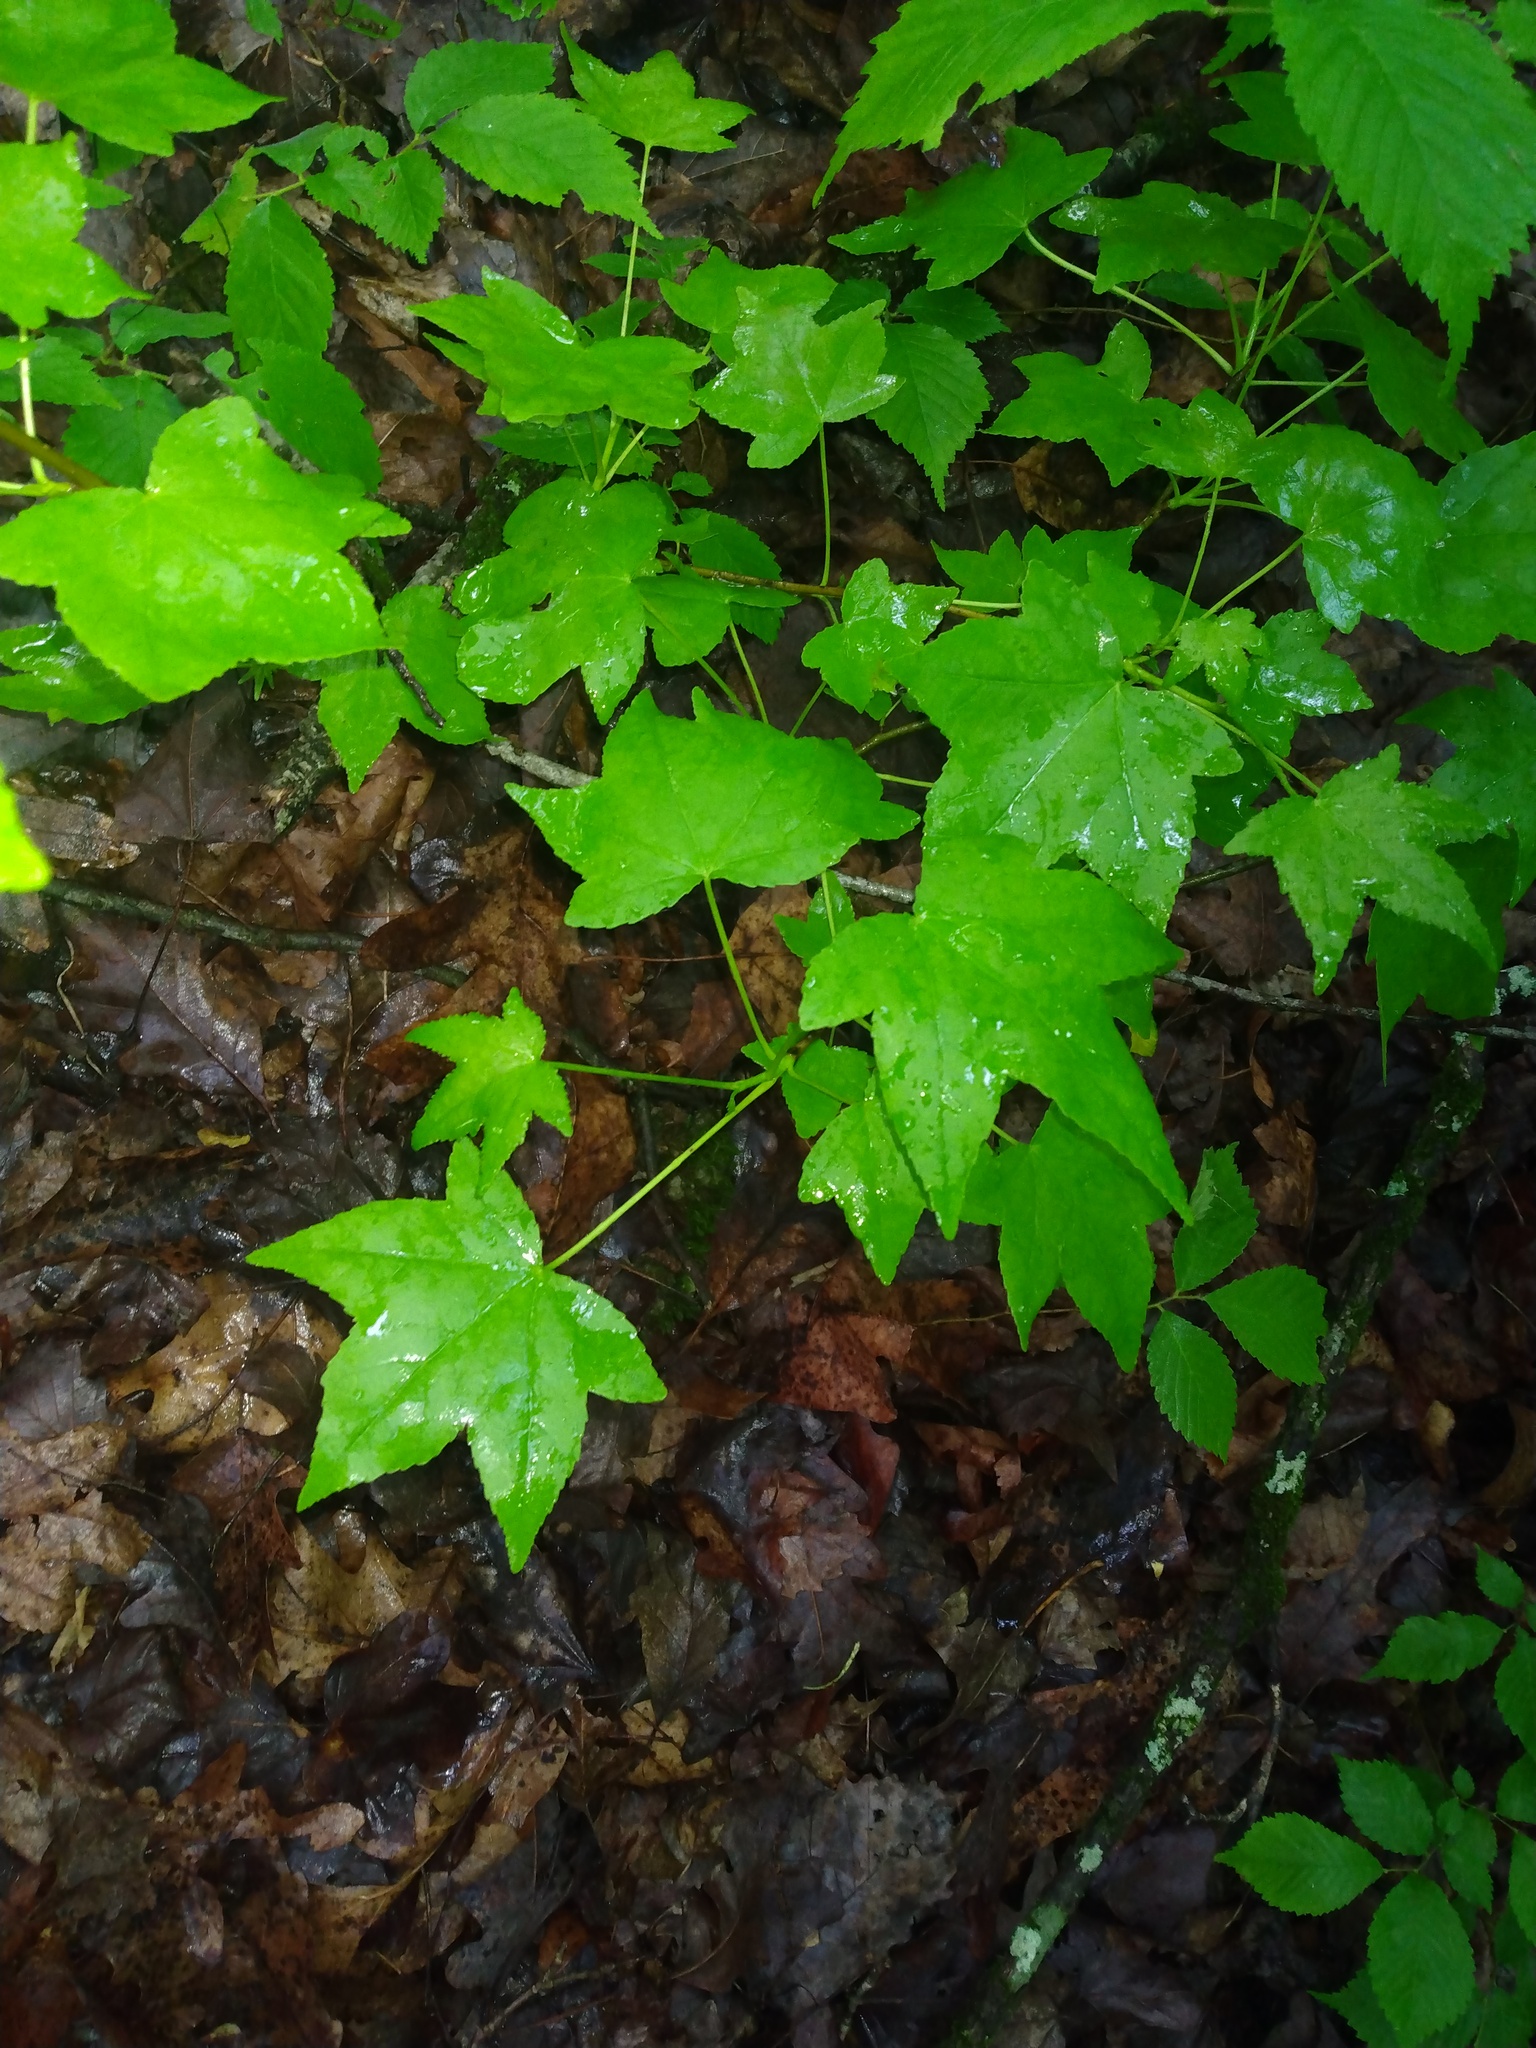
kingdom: Plantae
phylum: Tracheophyta
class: Magnoliopsida
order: Saxifragales
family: Altingiaceae
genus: Liquidambar
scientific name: Liquidambar styraciflua
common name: Sweet gum
